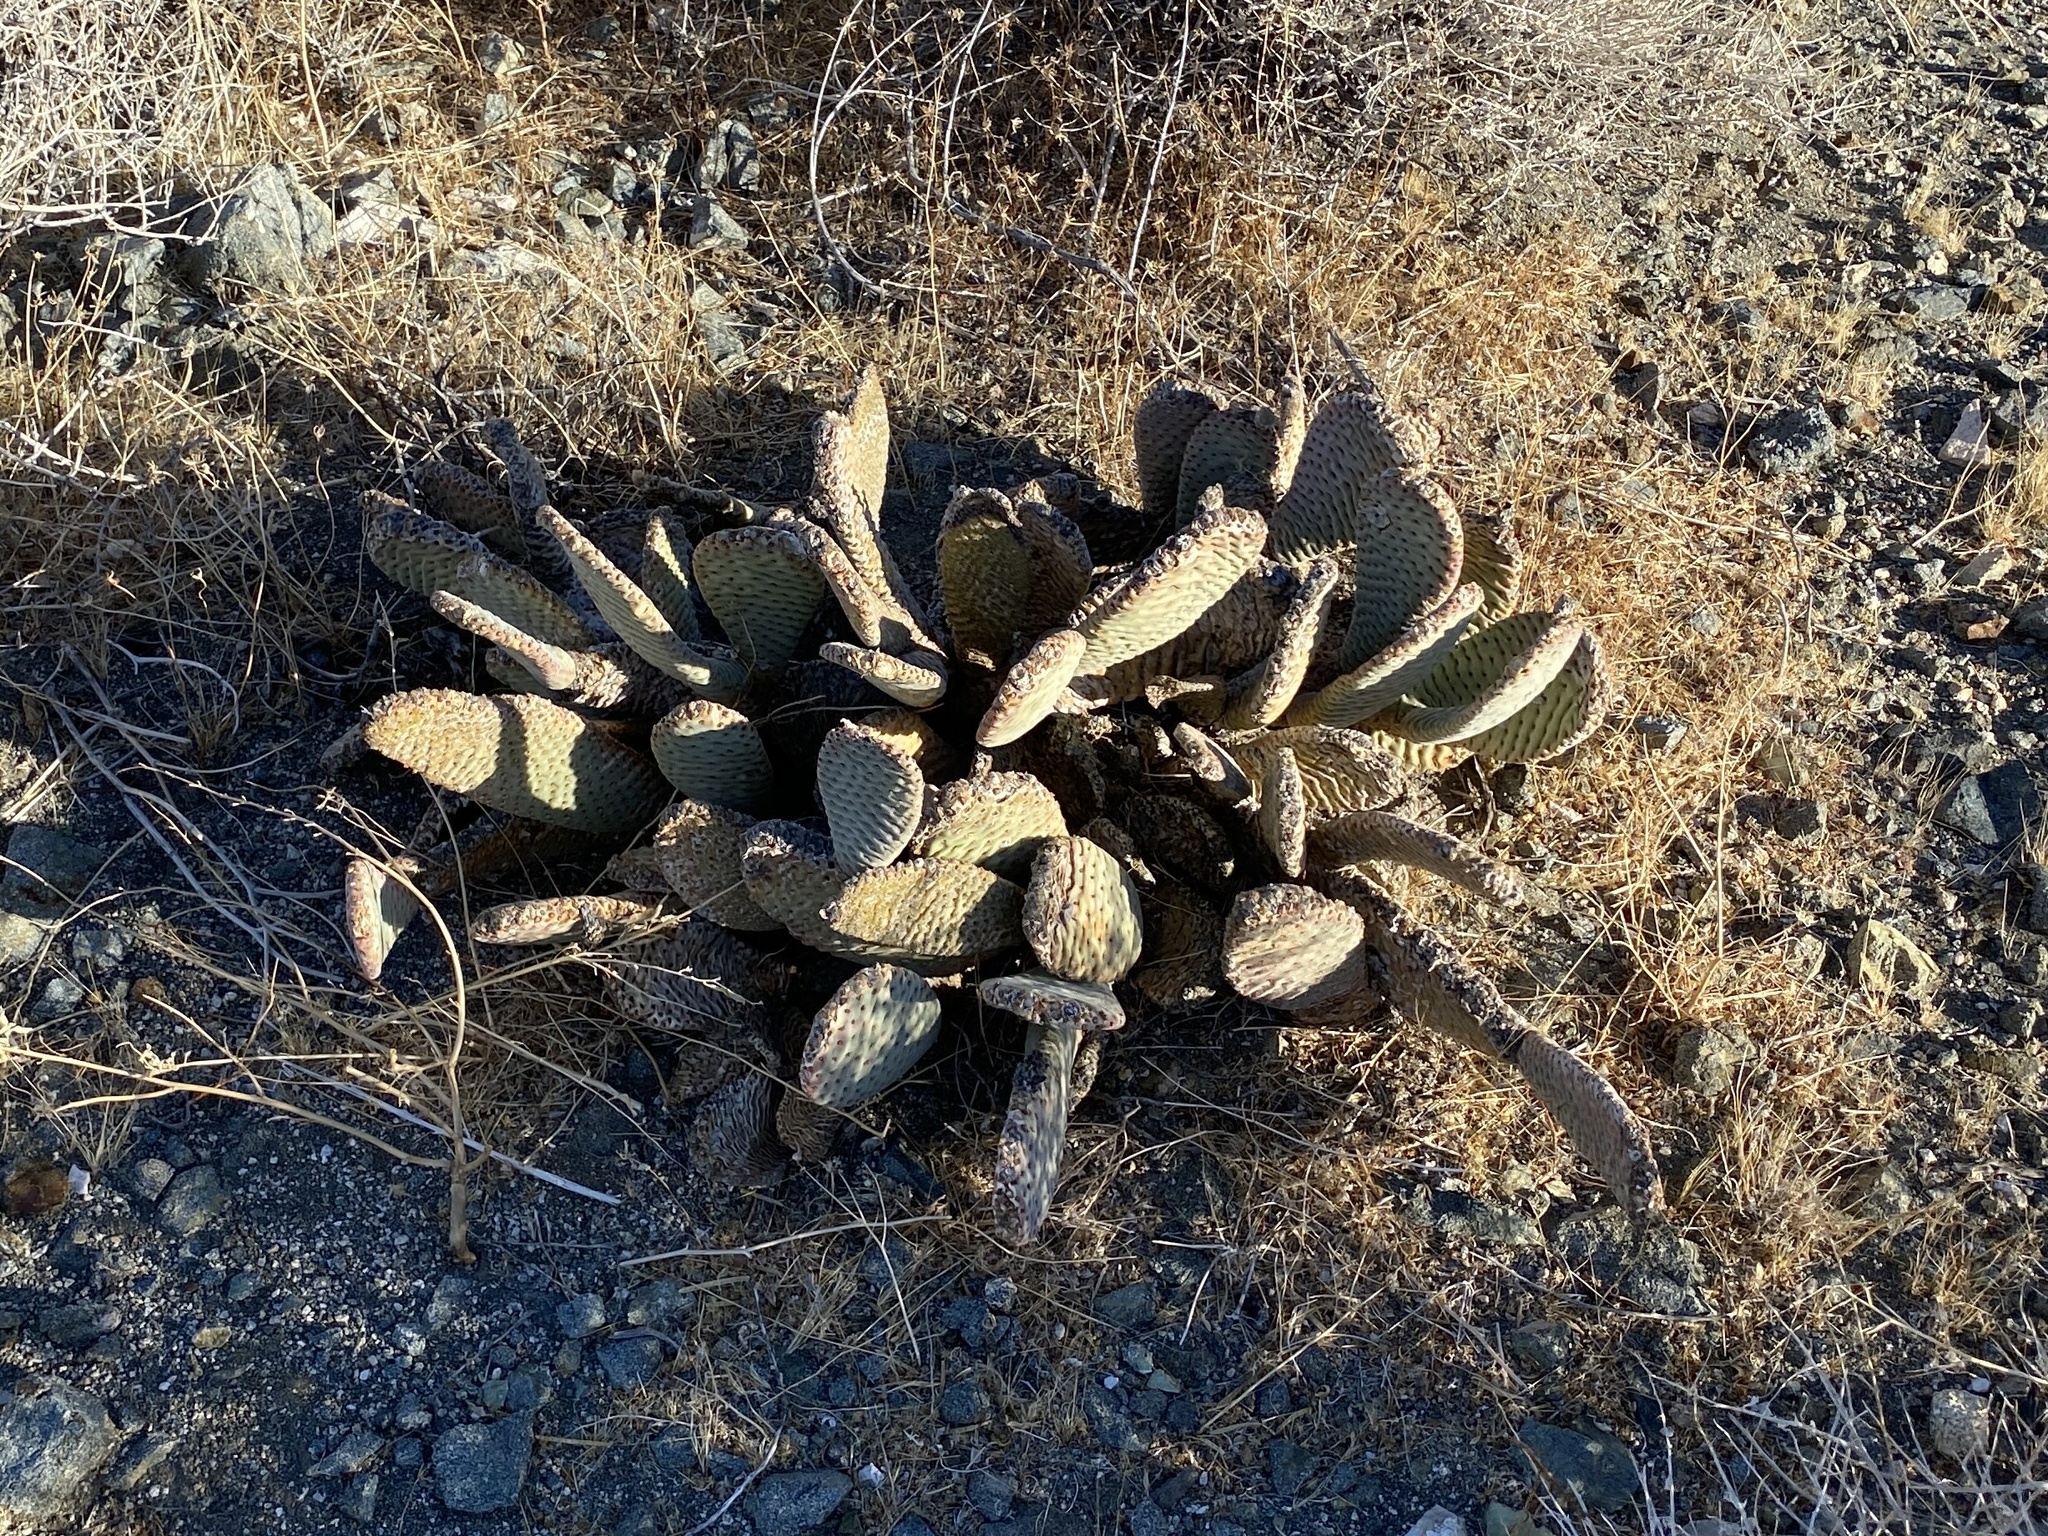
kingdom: Plantae
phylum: Tracheophyta
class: Magnoliopsida
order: Caryophyllales
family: Cactaceae
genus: Opuntia
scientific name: Opuntia basilaris
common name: Beavertail prickly-pear
